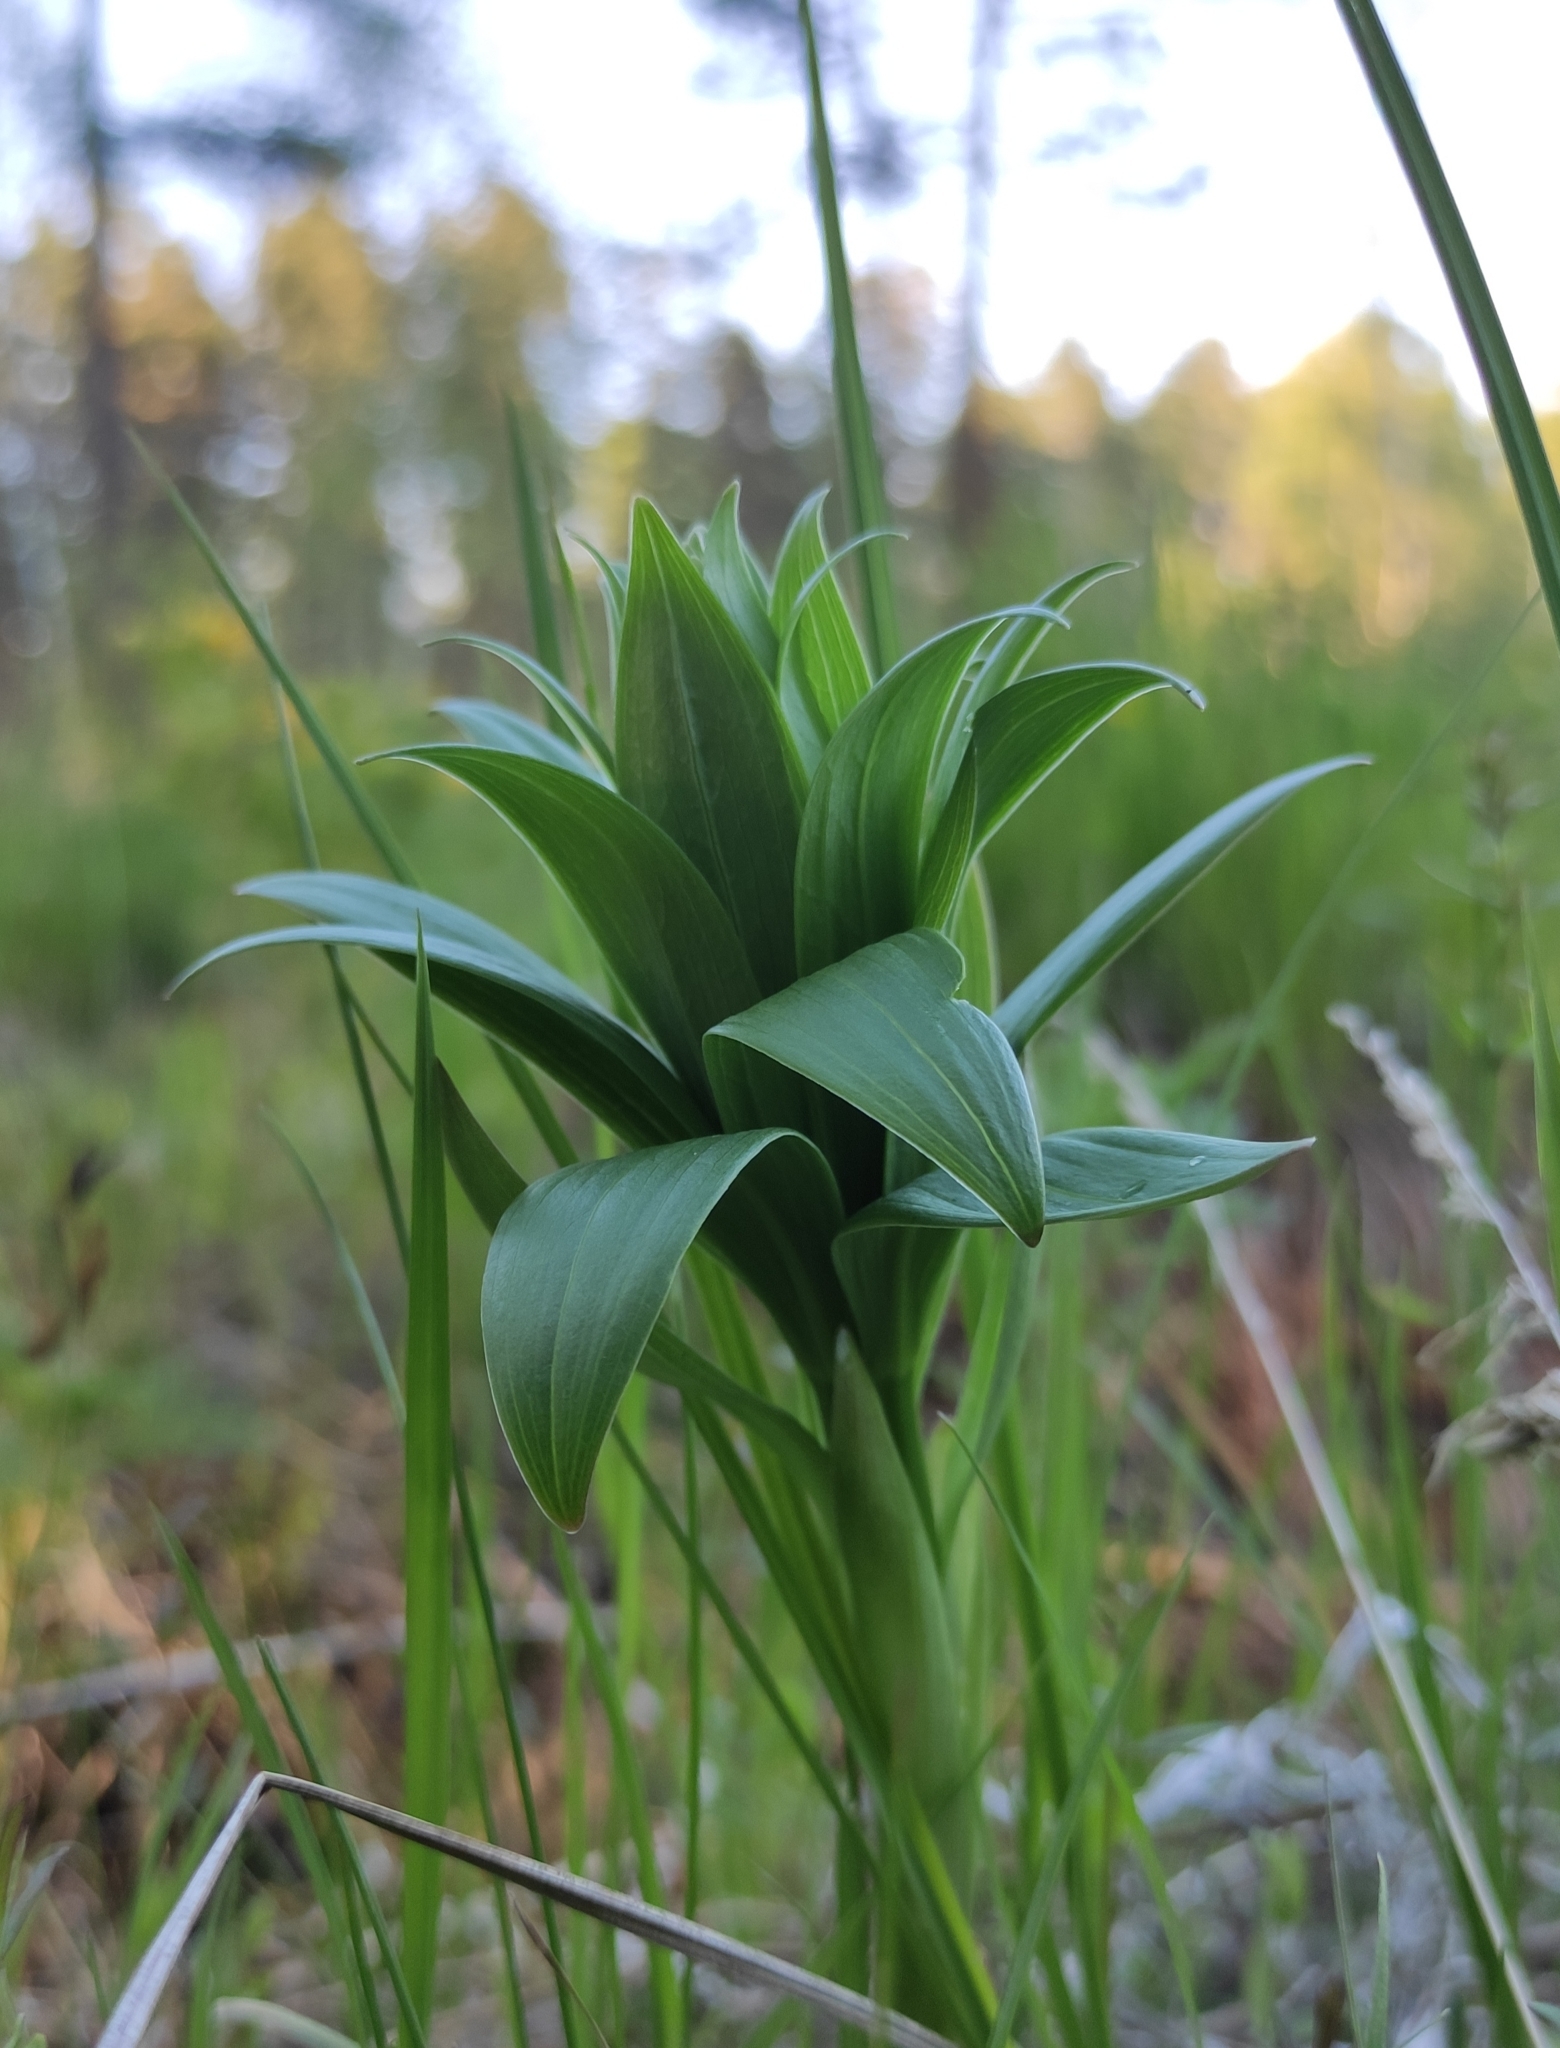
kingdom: Plantae
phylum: Tracheophyta
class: Liliopsida
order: Liliales
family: Liliaceae
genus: Lilium
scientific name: Lilium martagon
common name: Martagon lily
